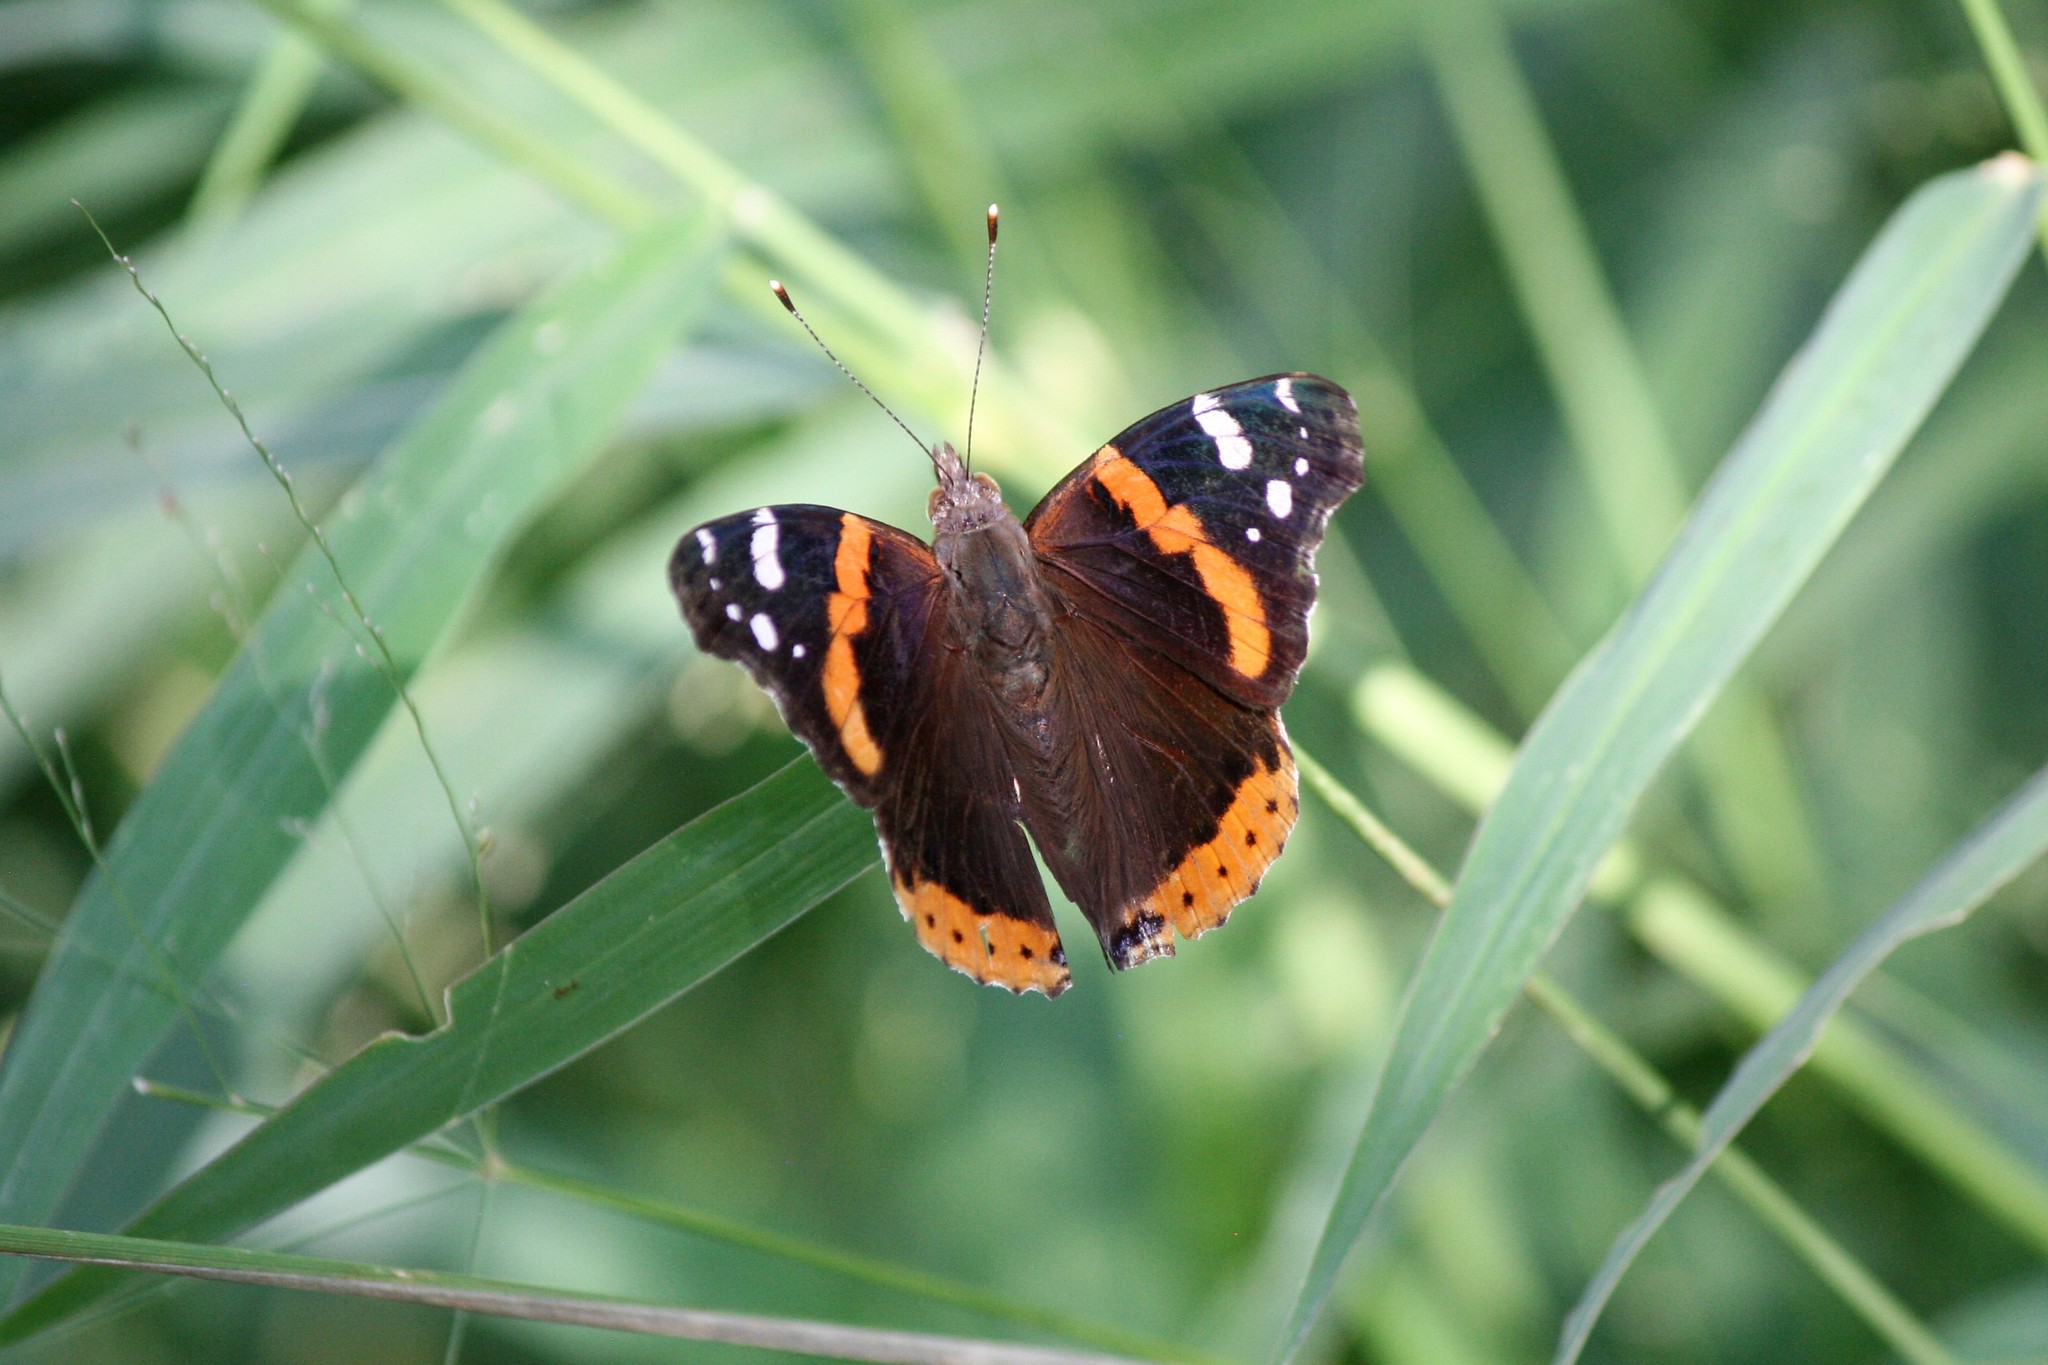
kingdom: Animalia
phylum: Arthropoda
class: Insecta
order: Lepidoptera
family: Nymphalidae
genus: Vanessa
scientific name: Vanessa atalanta
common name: Red admiral
